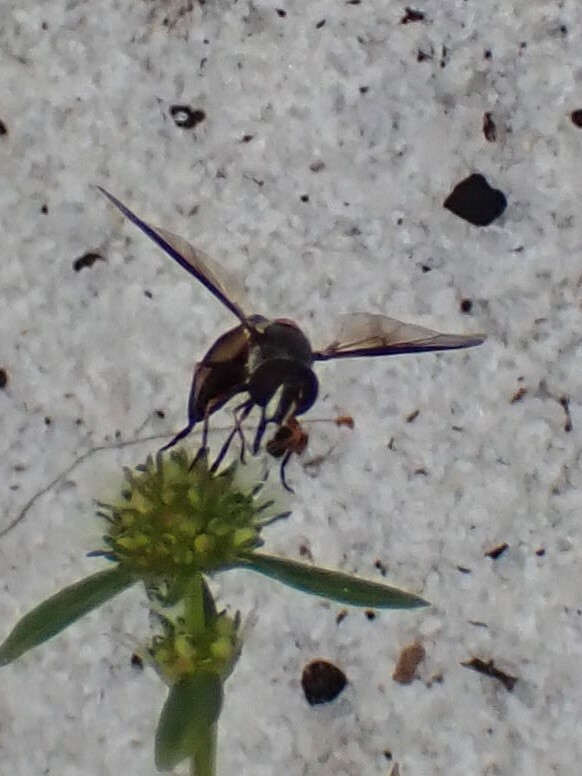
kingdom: Animalia
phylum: Arthropoda
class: Insecta
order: Diptera
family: Syrphidae
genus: Dioprosopa
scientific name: Dioprosopa clavatus
